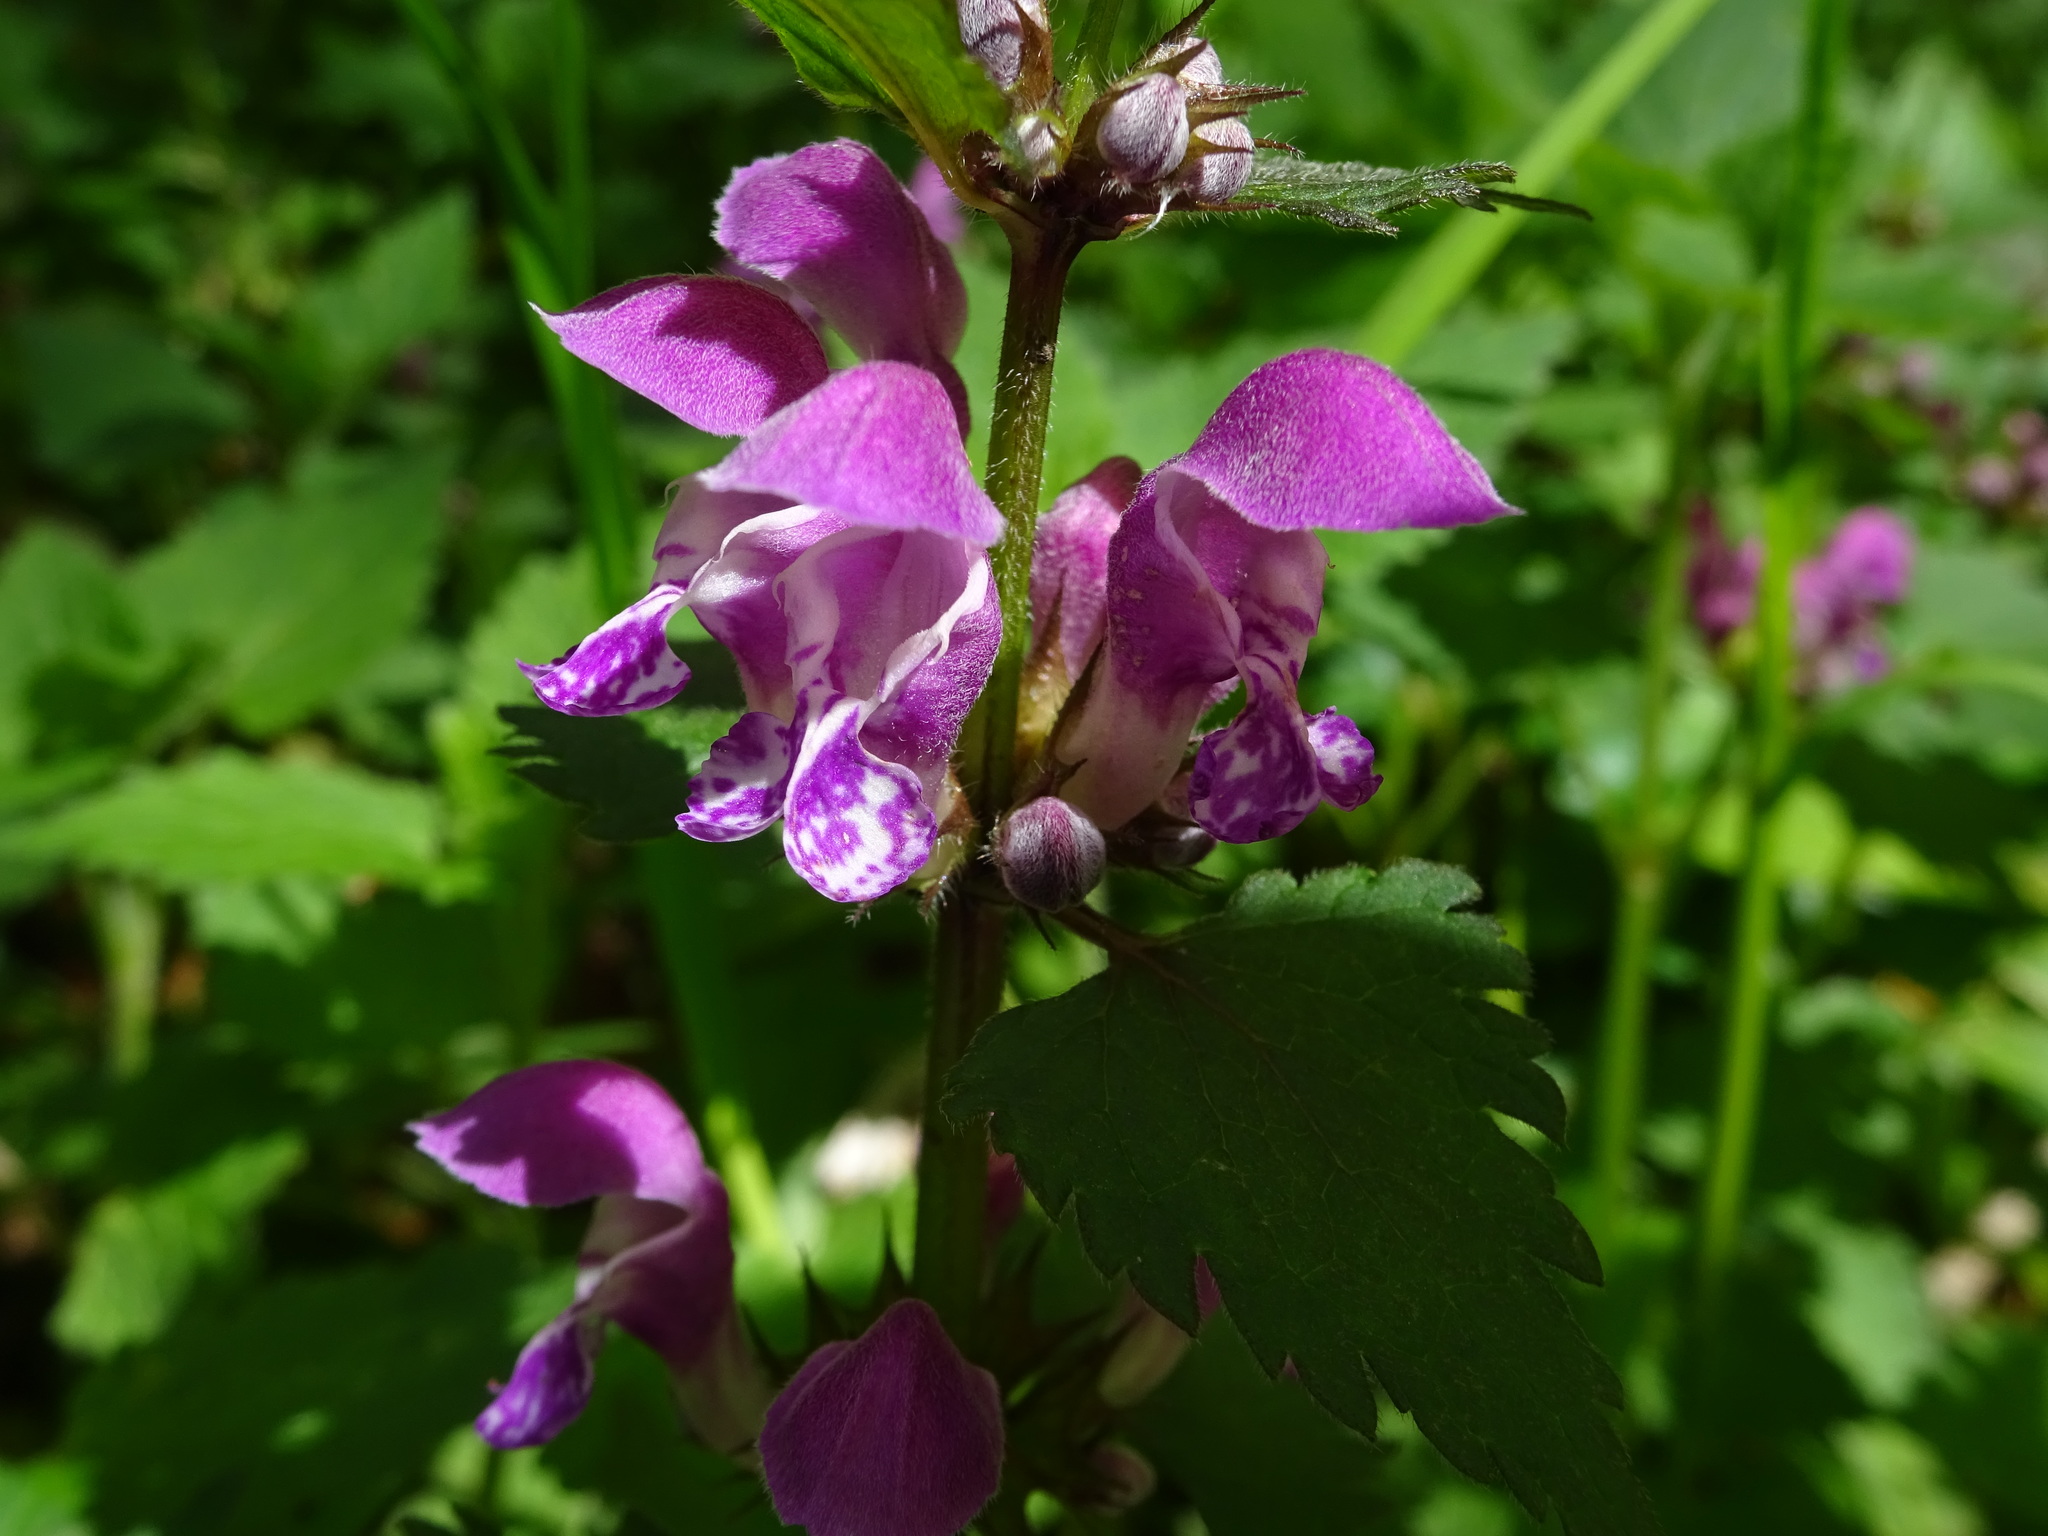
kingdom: Plantae
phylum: Tracheophyta
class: Magnoliopsida
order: Lamiales
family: Lamiaceae
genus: Lamium
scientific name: Lamium maculatum
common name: Spotted dead-nettle
